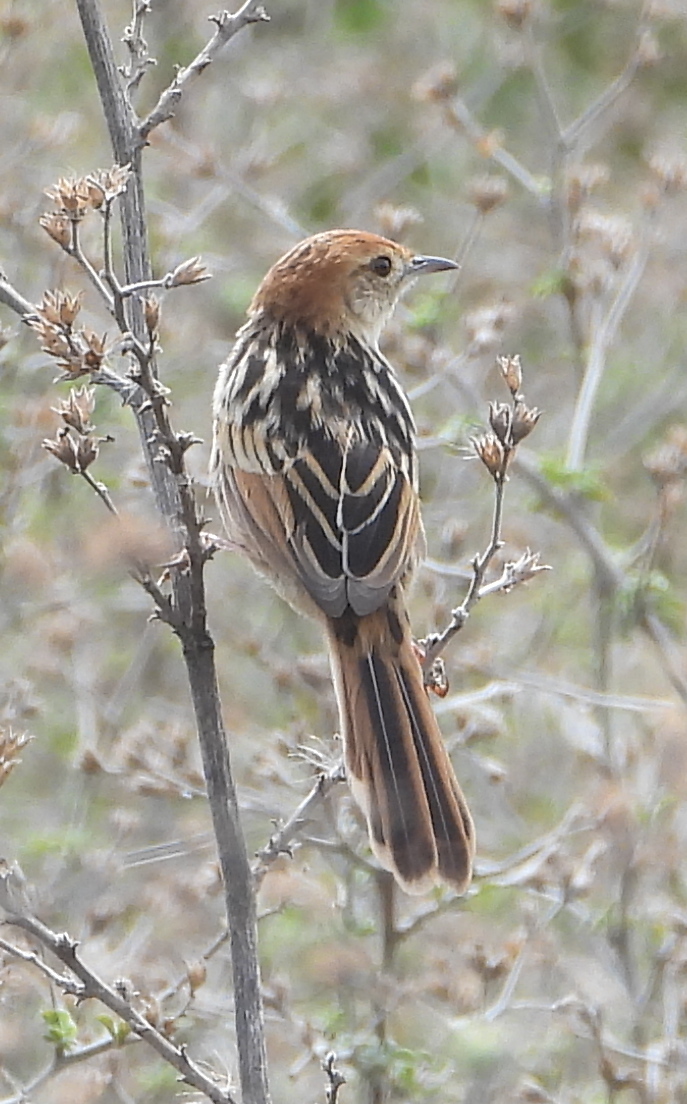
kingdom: Animalia
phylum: Chordata
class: Aves
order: Passeriformes
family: Cisticolidae
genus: Cisticola
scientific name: Cisticola tinniens
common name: Levaillant's cisticola
